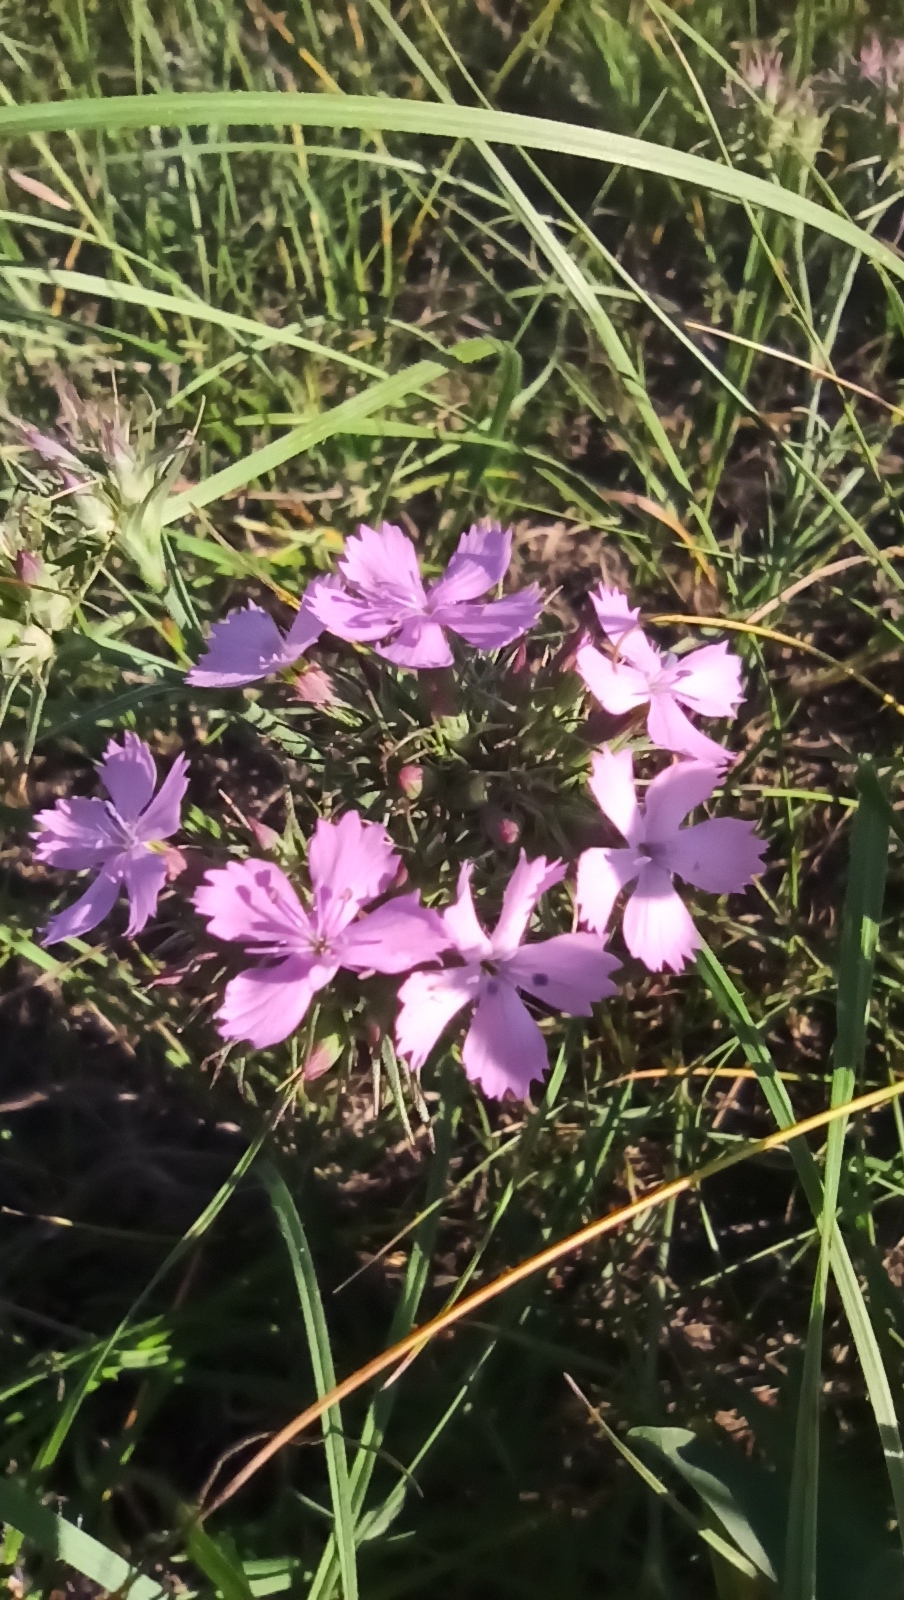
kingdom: Plantae
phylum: Tracheophyta
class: Magnoliopsida
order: Caryophyllales
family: Caryophyllaceae
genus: Dianthus
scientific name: Dianthus pseudarmeria
